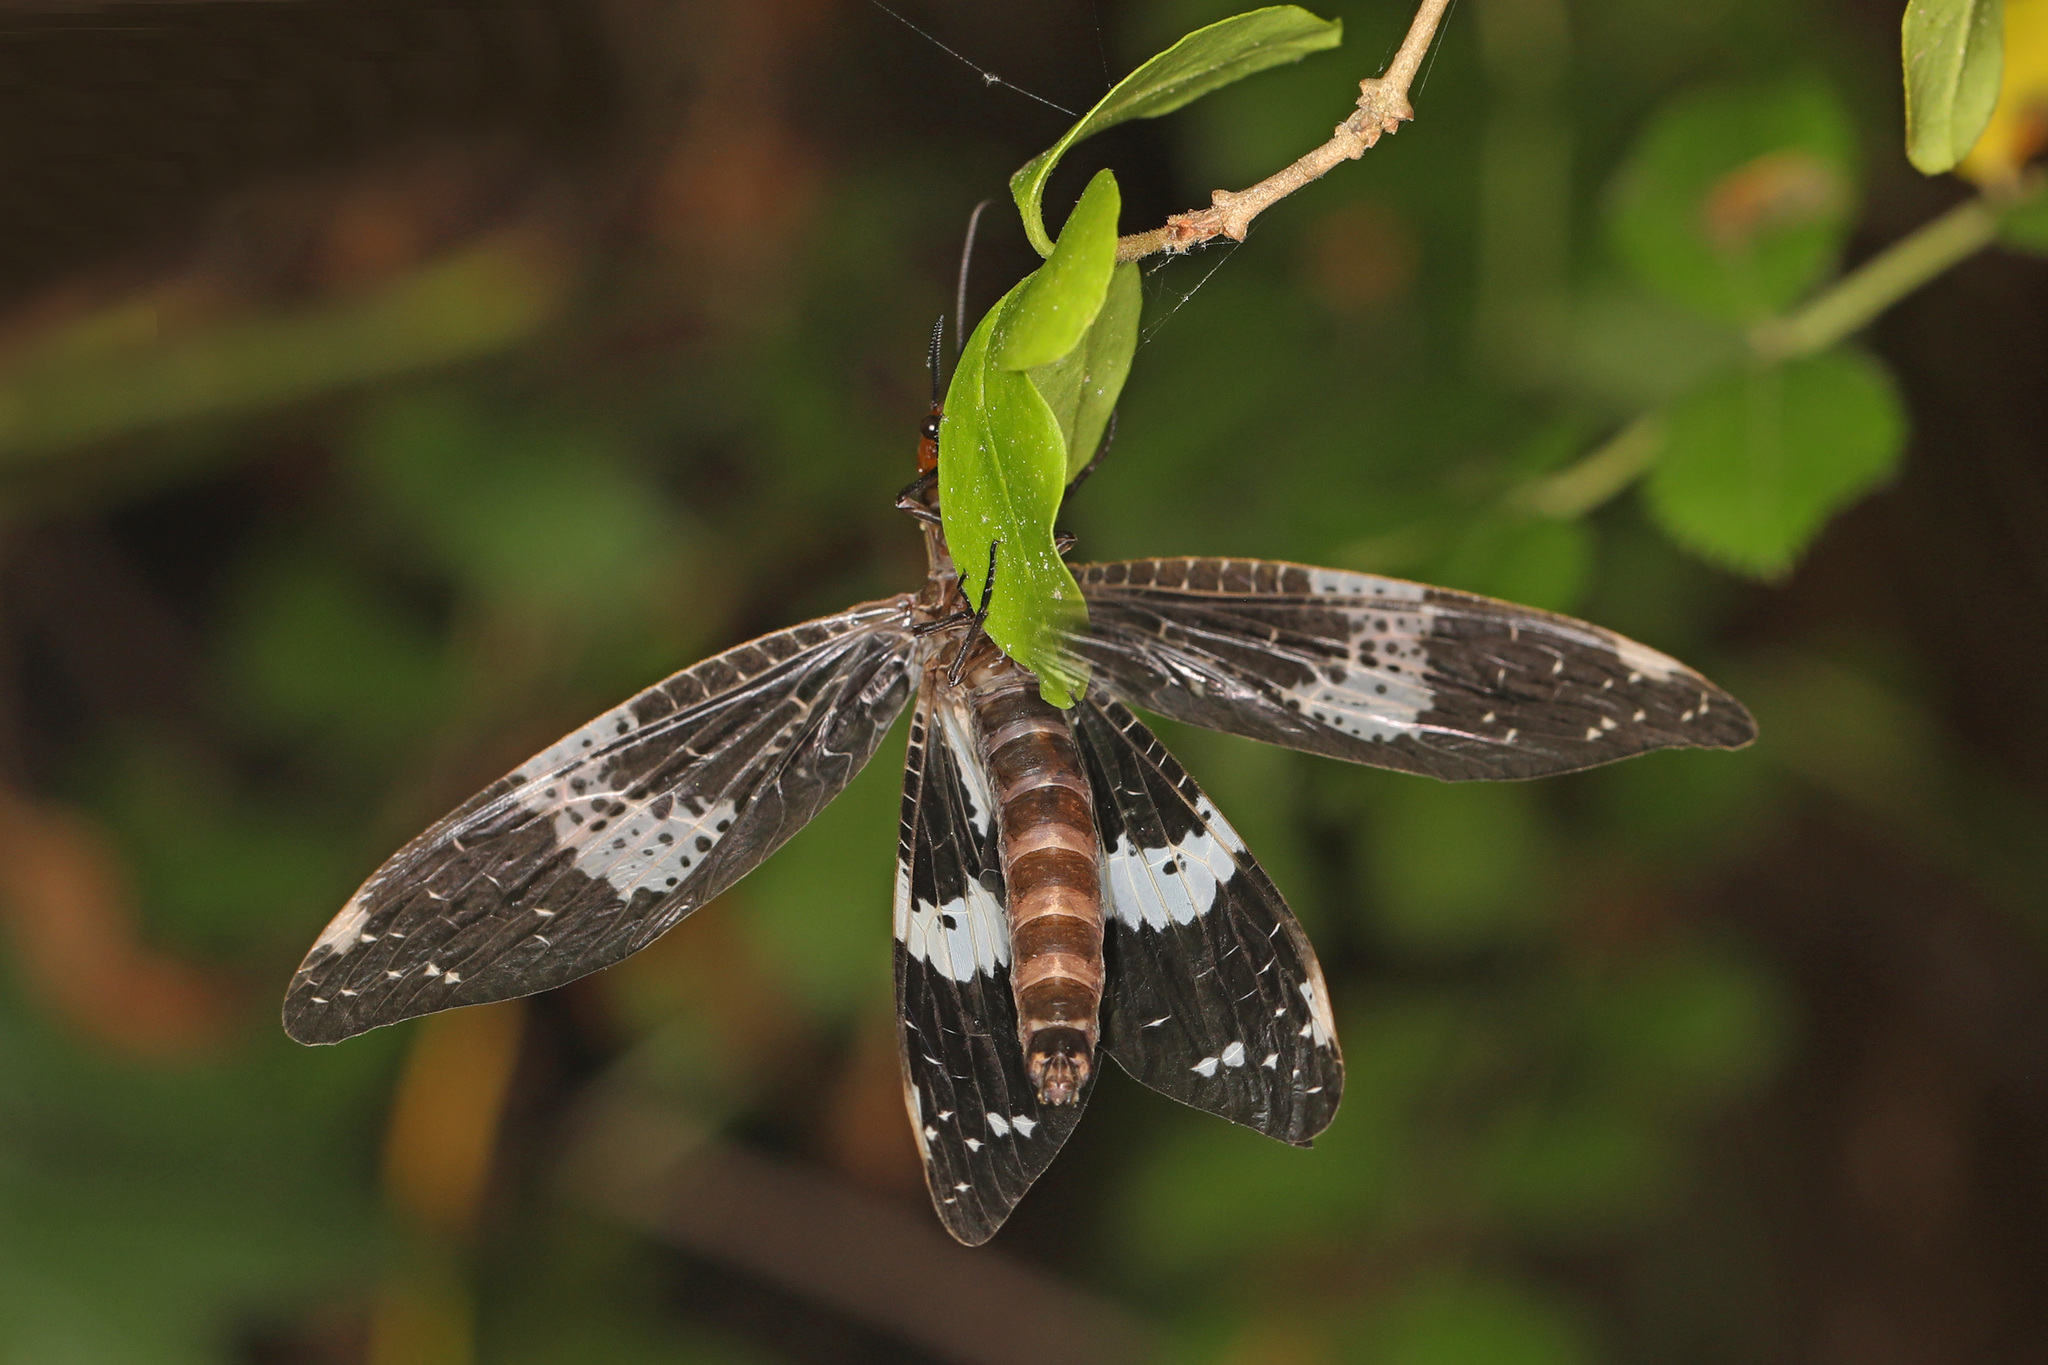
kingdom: Animalia
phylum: Arthropoda
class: Insecta
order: Megaloptera
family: Corydalidae
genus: Nigronia
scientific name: Nigronia fasciata
